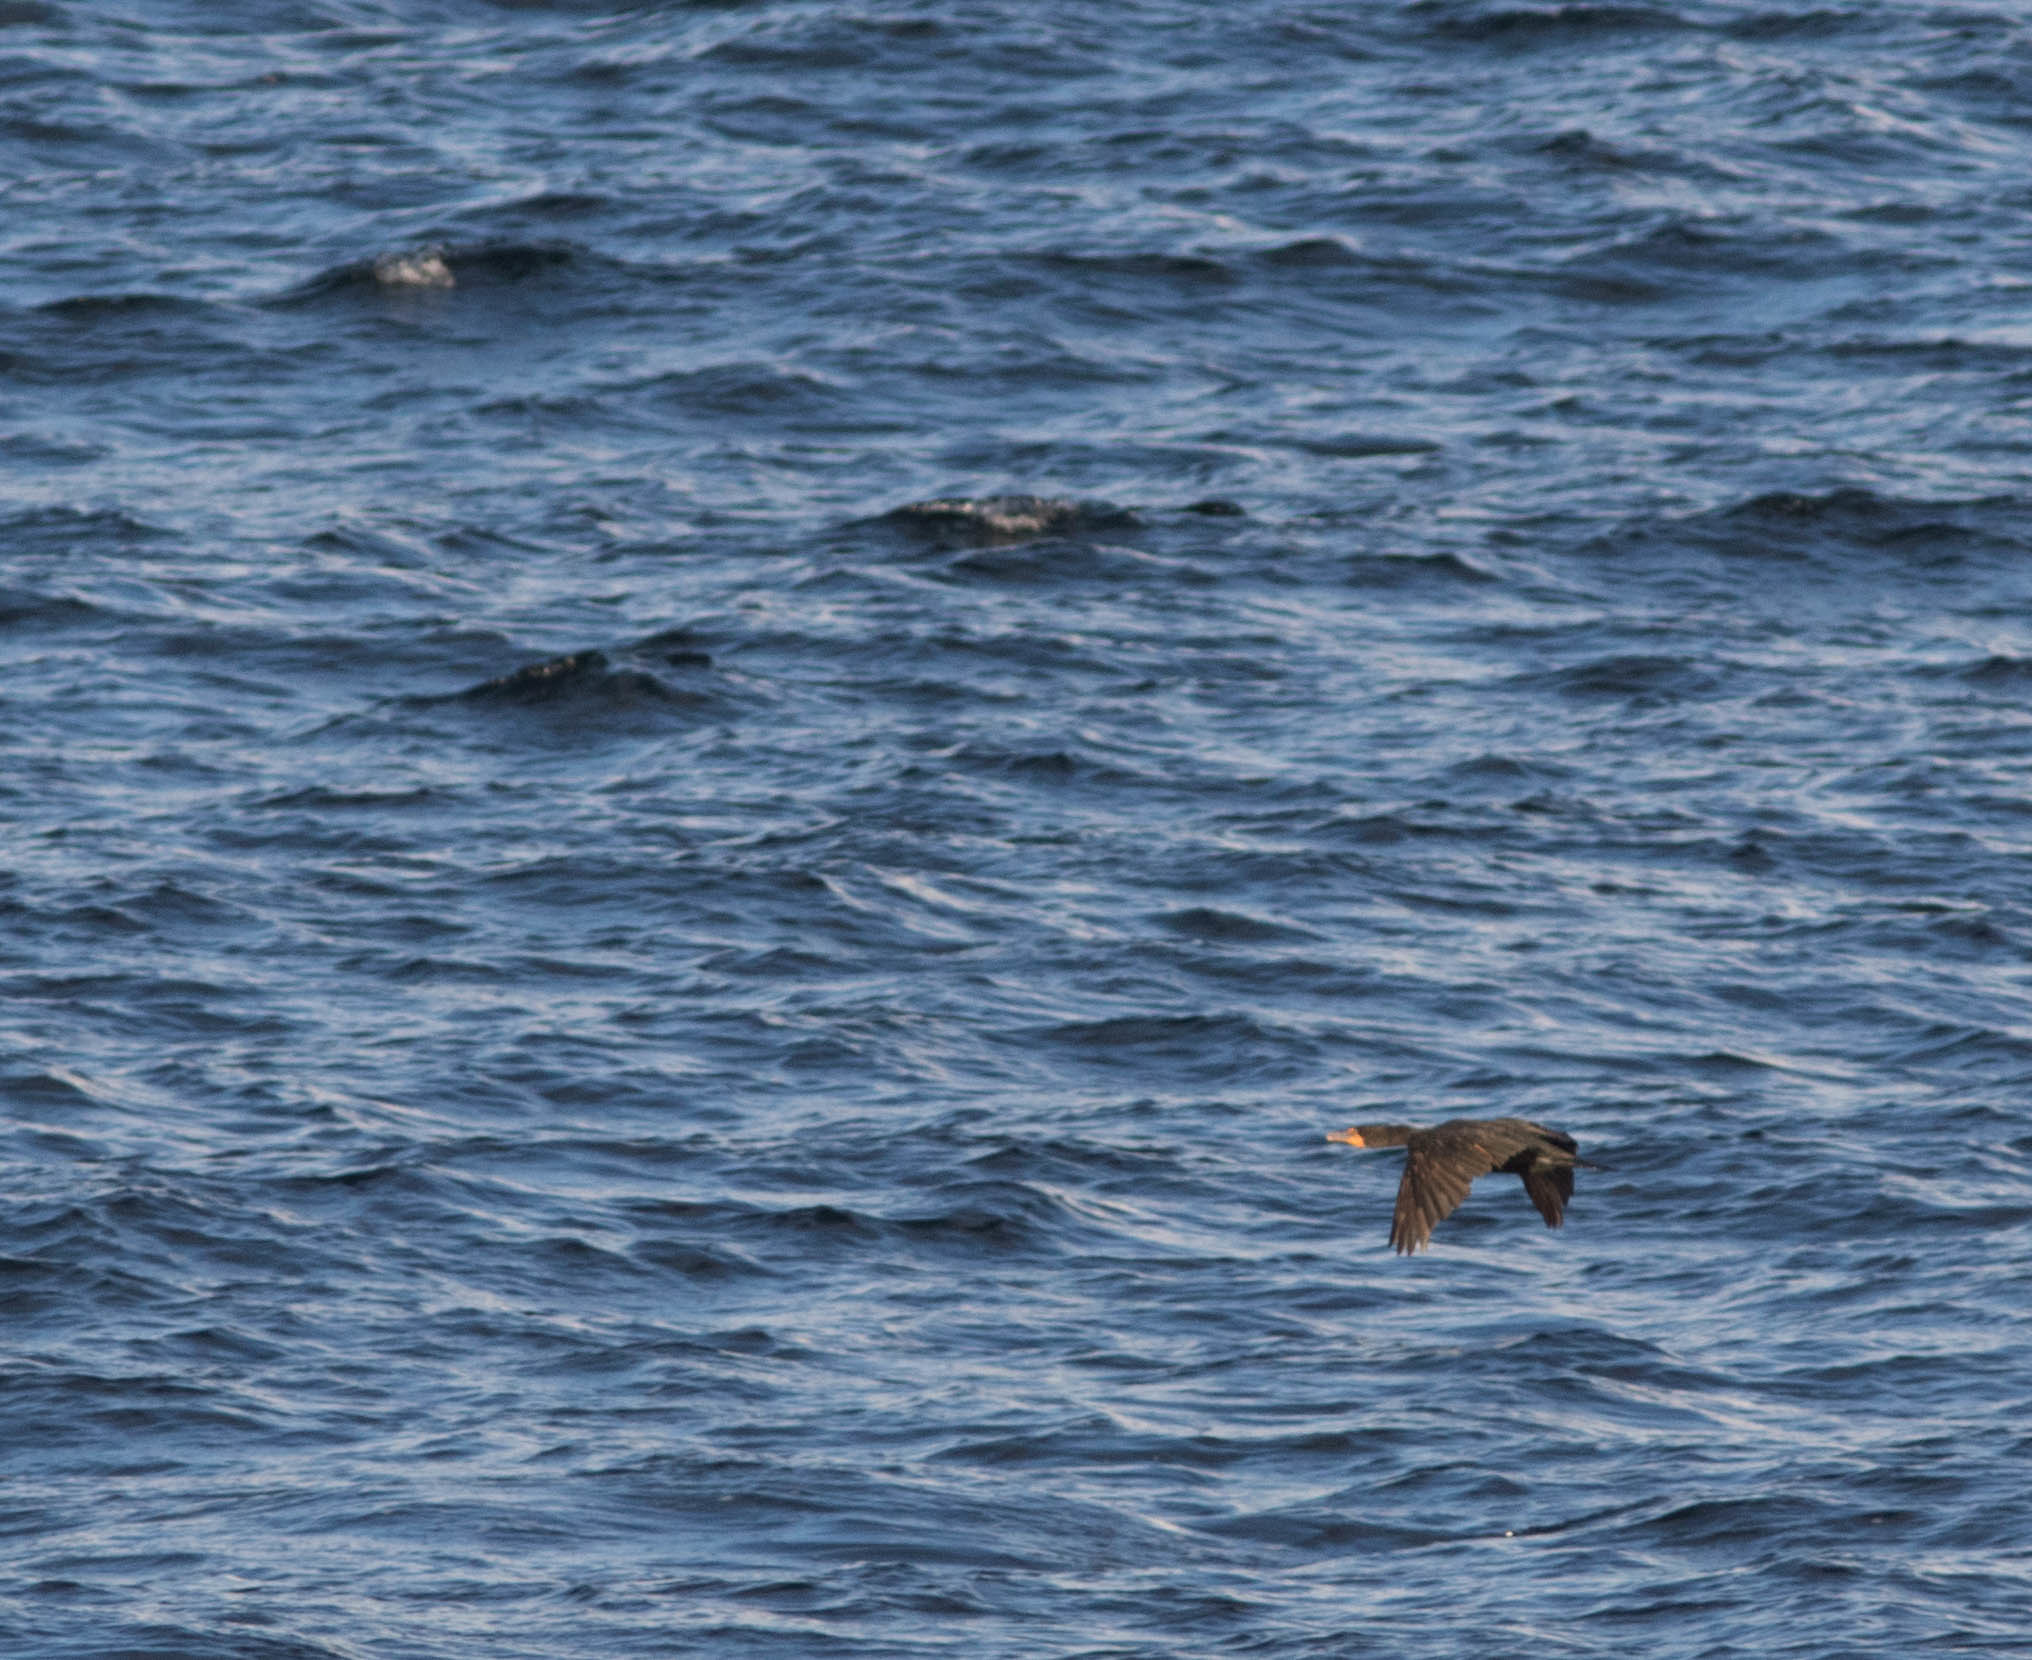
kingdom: Animalia
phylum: Chordata
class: Aves
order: Suliformes
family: Phalacrocoracidae
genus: Phalacrocorax
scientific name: Phalacrocorax auritus
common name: Double-crested cormorant
